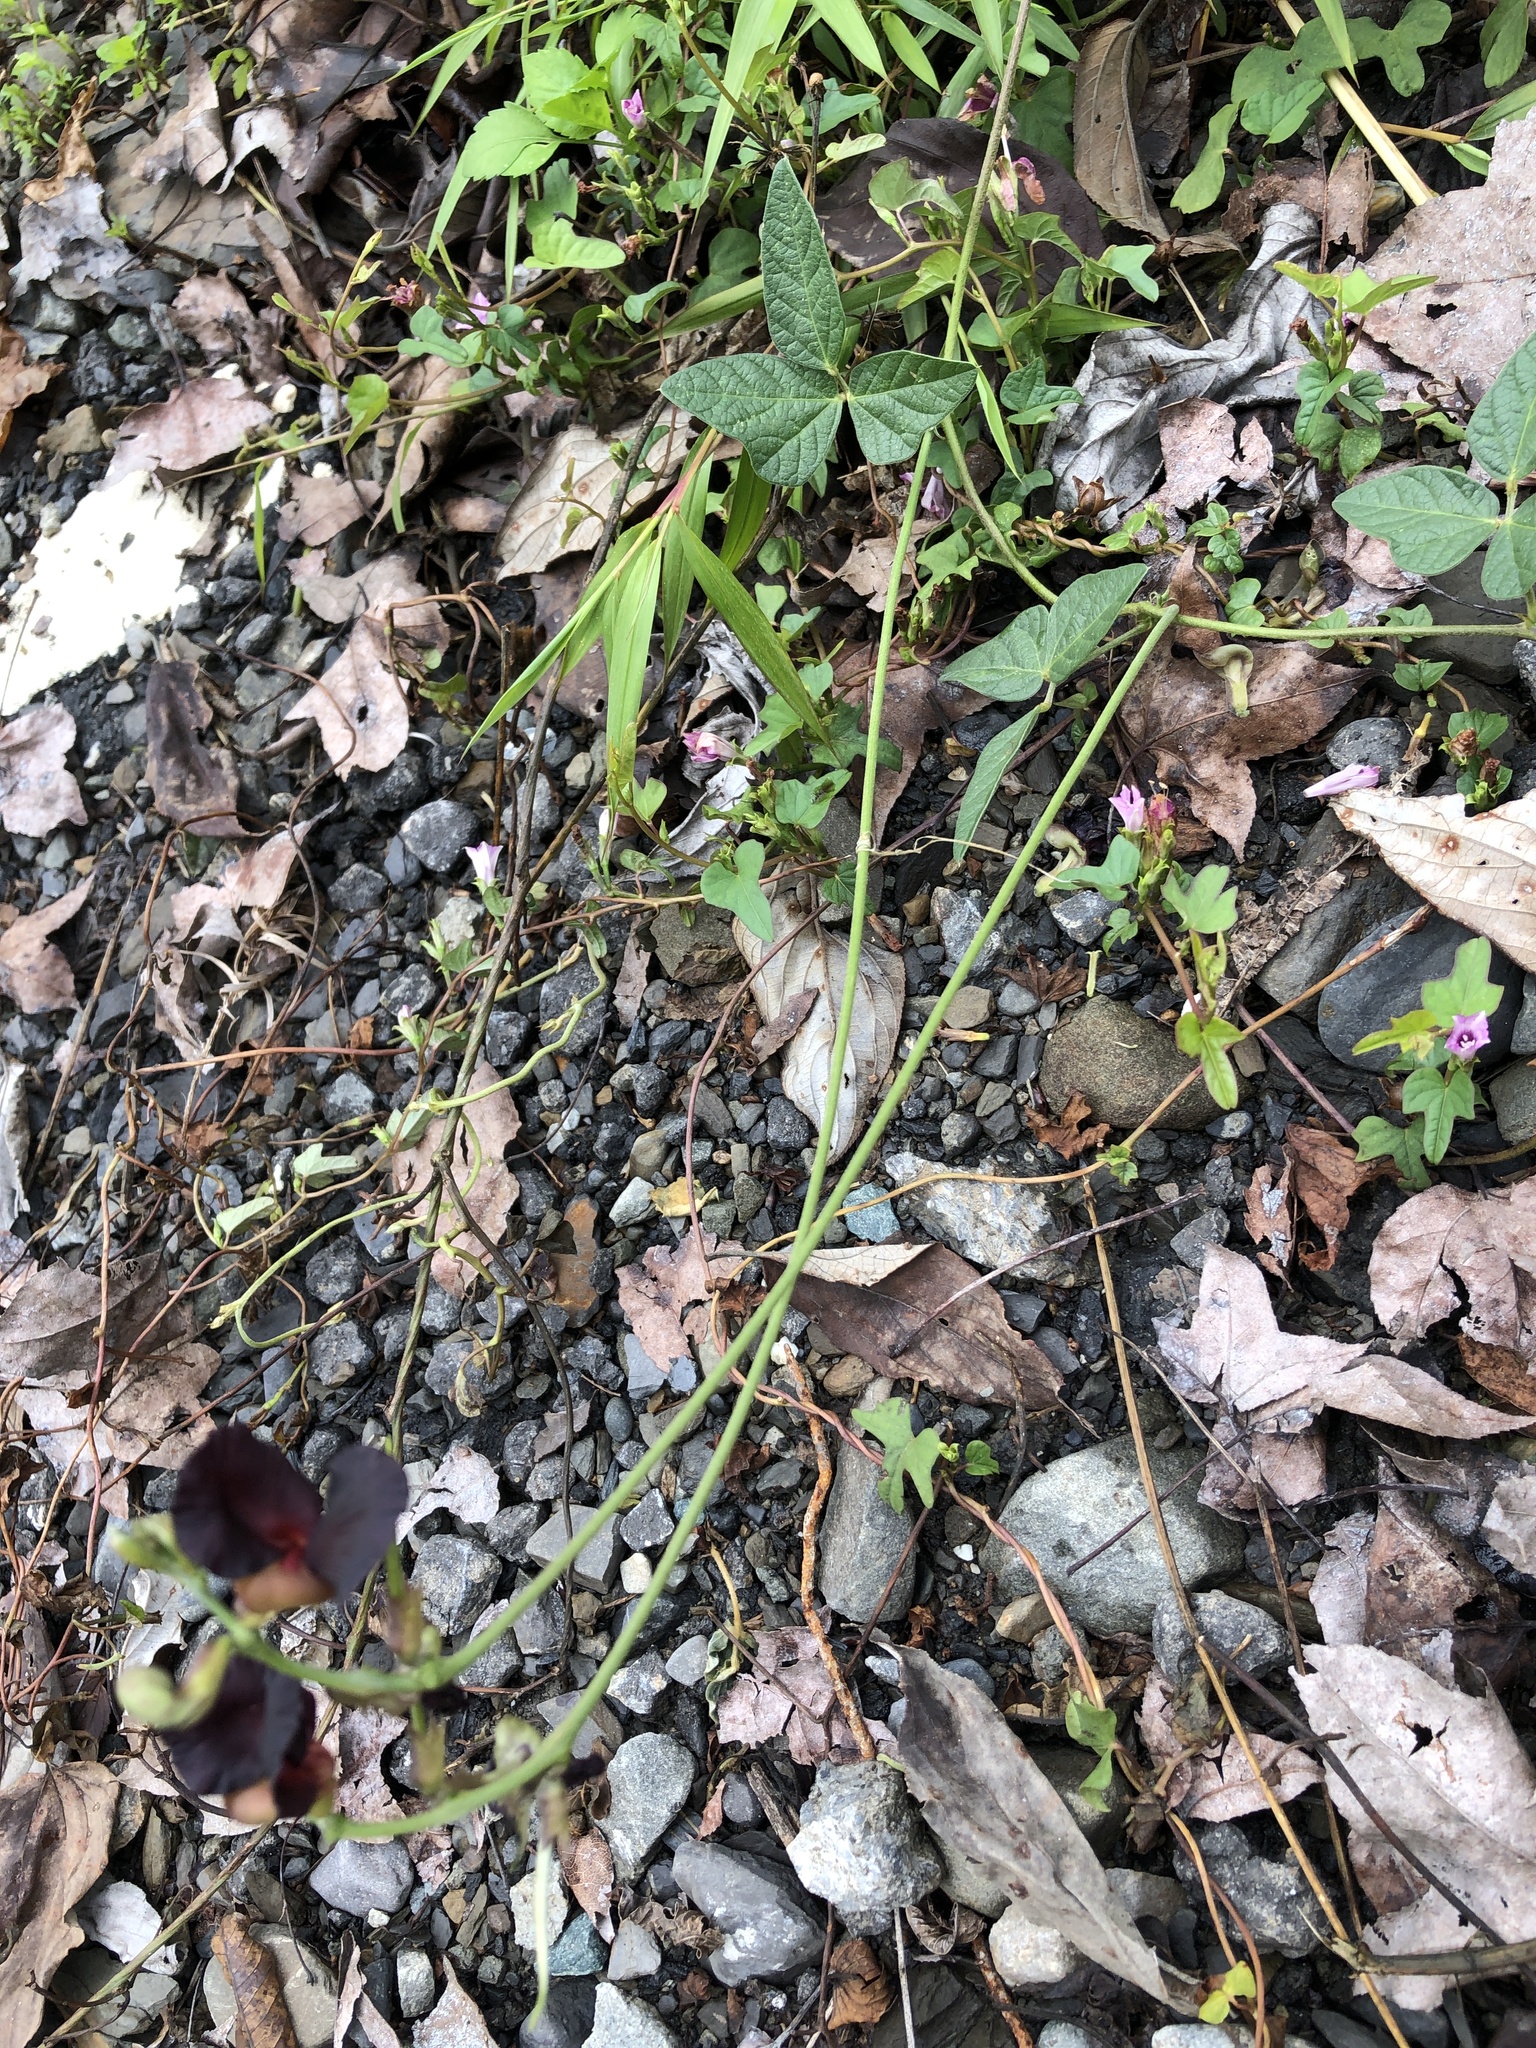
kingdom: Plantae
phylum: Tracheophyta
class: Magnoliopsida
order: Fabales
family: Fabaceae
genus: Macroptilium
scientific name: Macroptilium atropurpureum
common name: Purple bushbean
